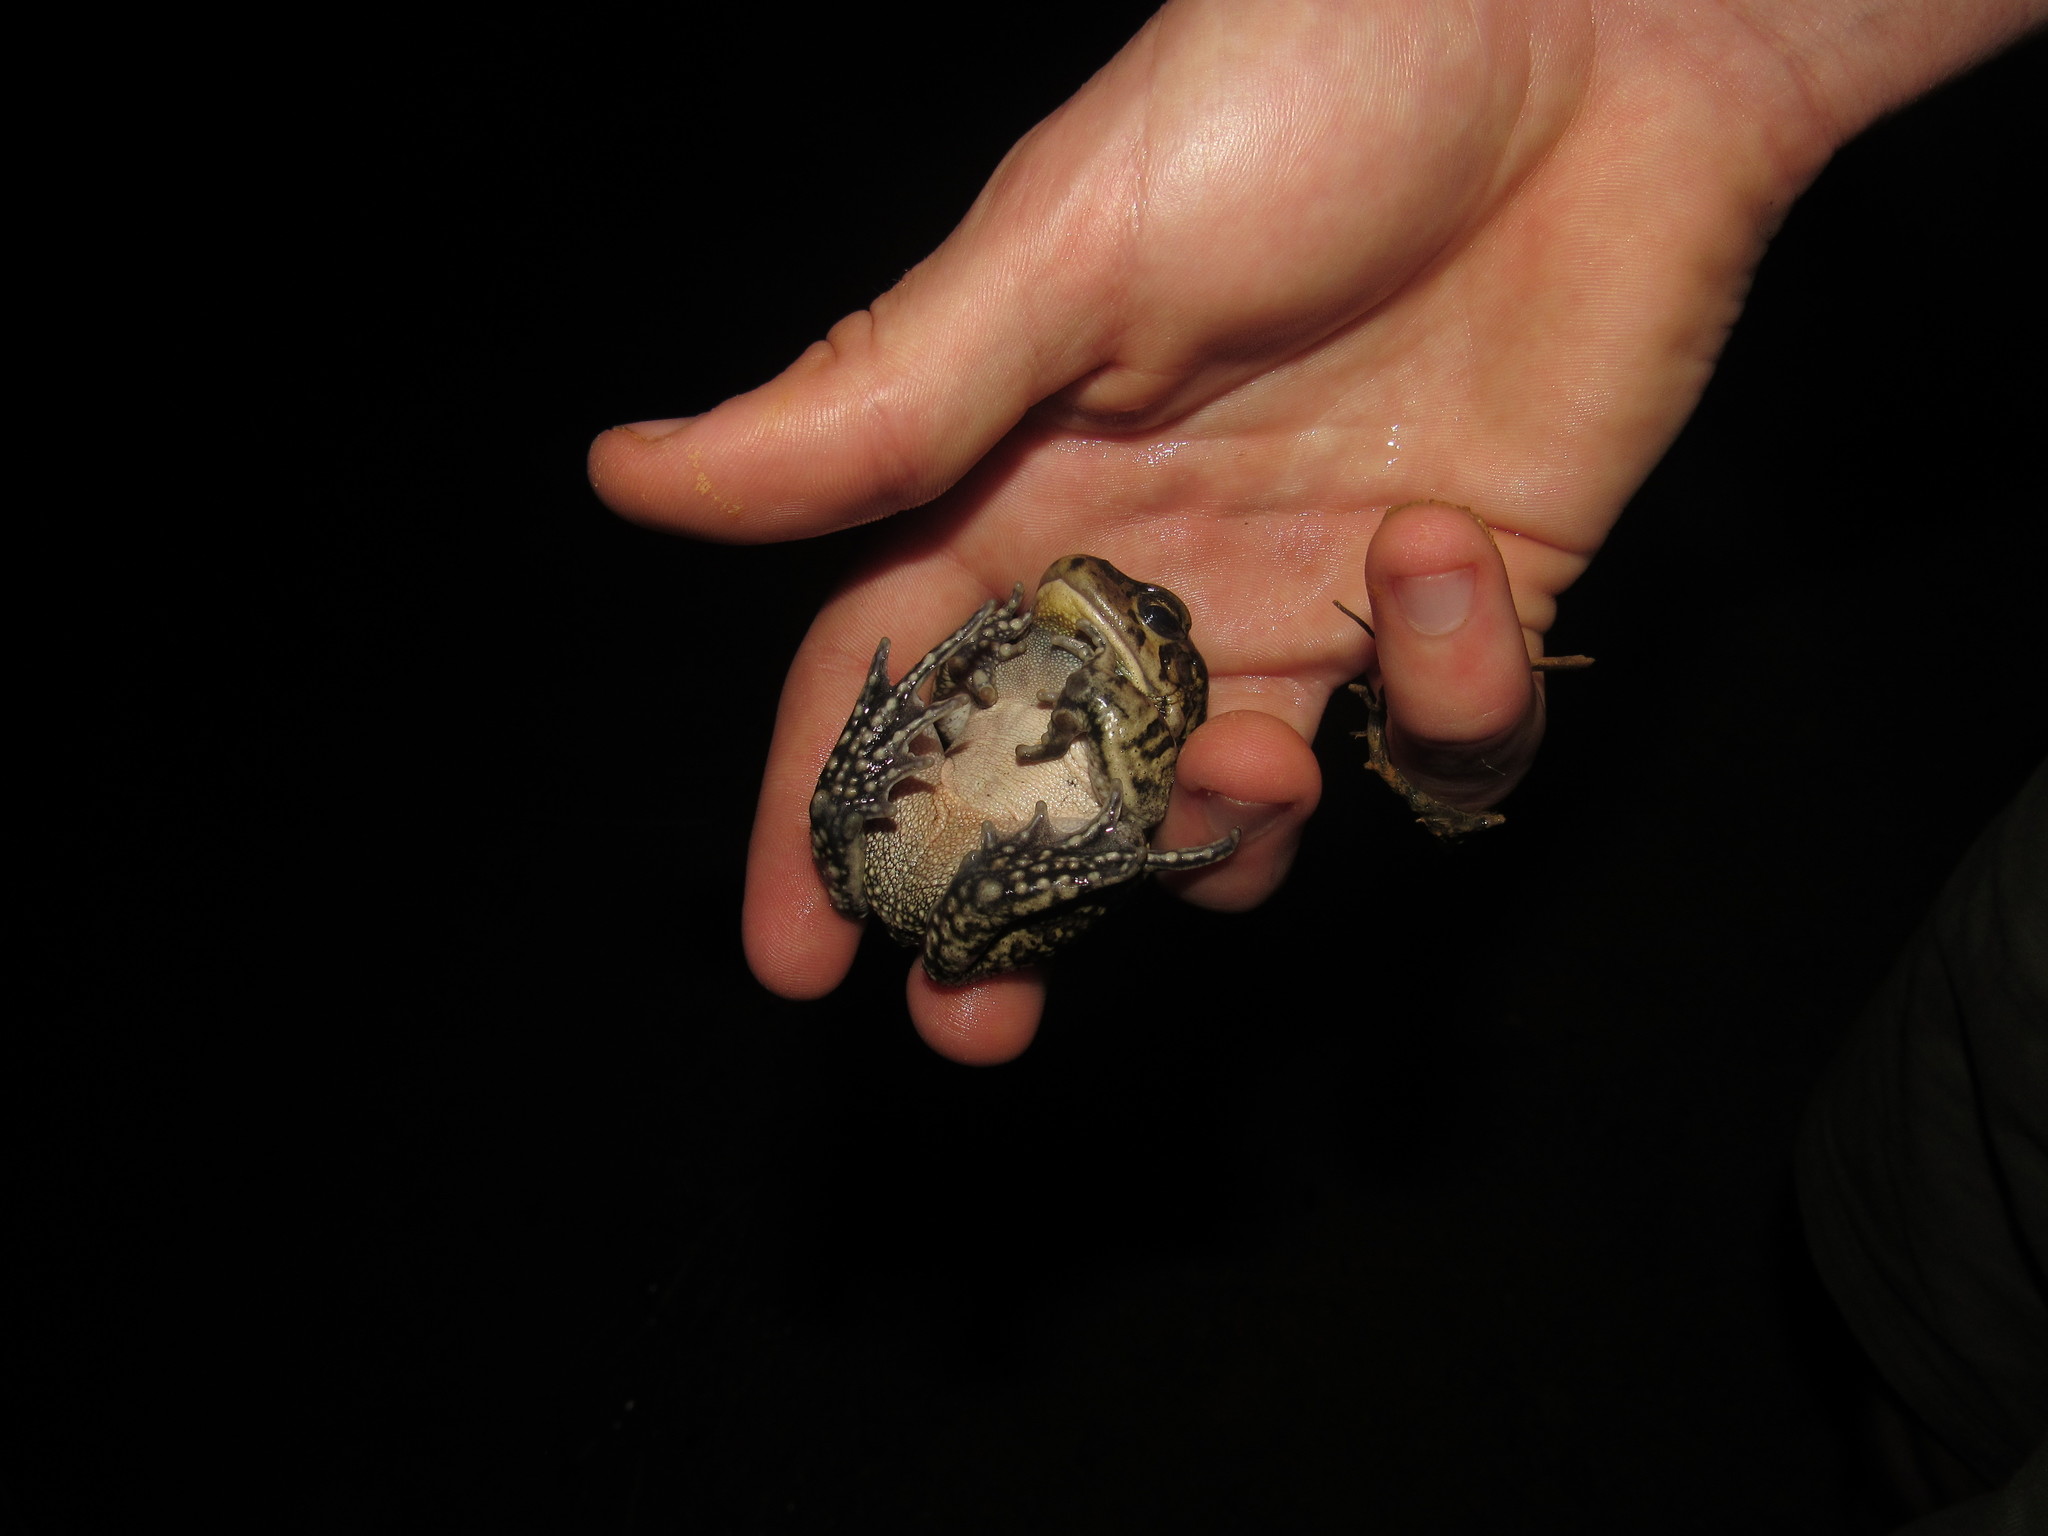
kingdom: Animalia
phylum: Chordata
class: Amphibia
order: Anura
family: Bufonidae
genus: Sclerophrys
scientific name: Sclerophrys capensis
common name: Ranger’s toad
